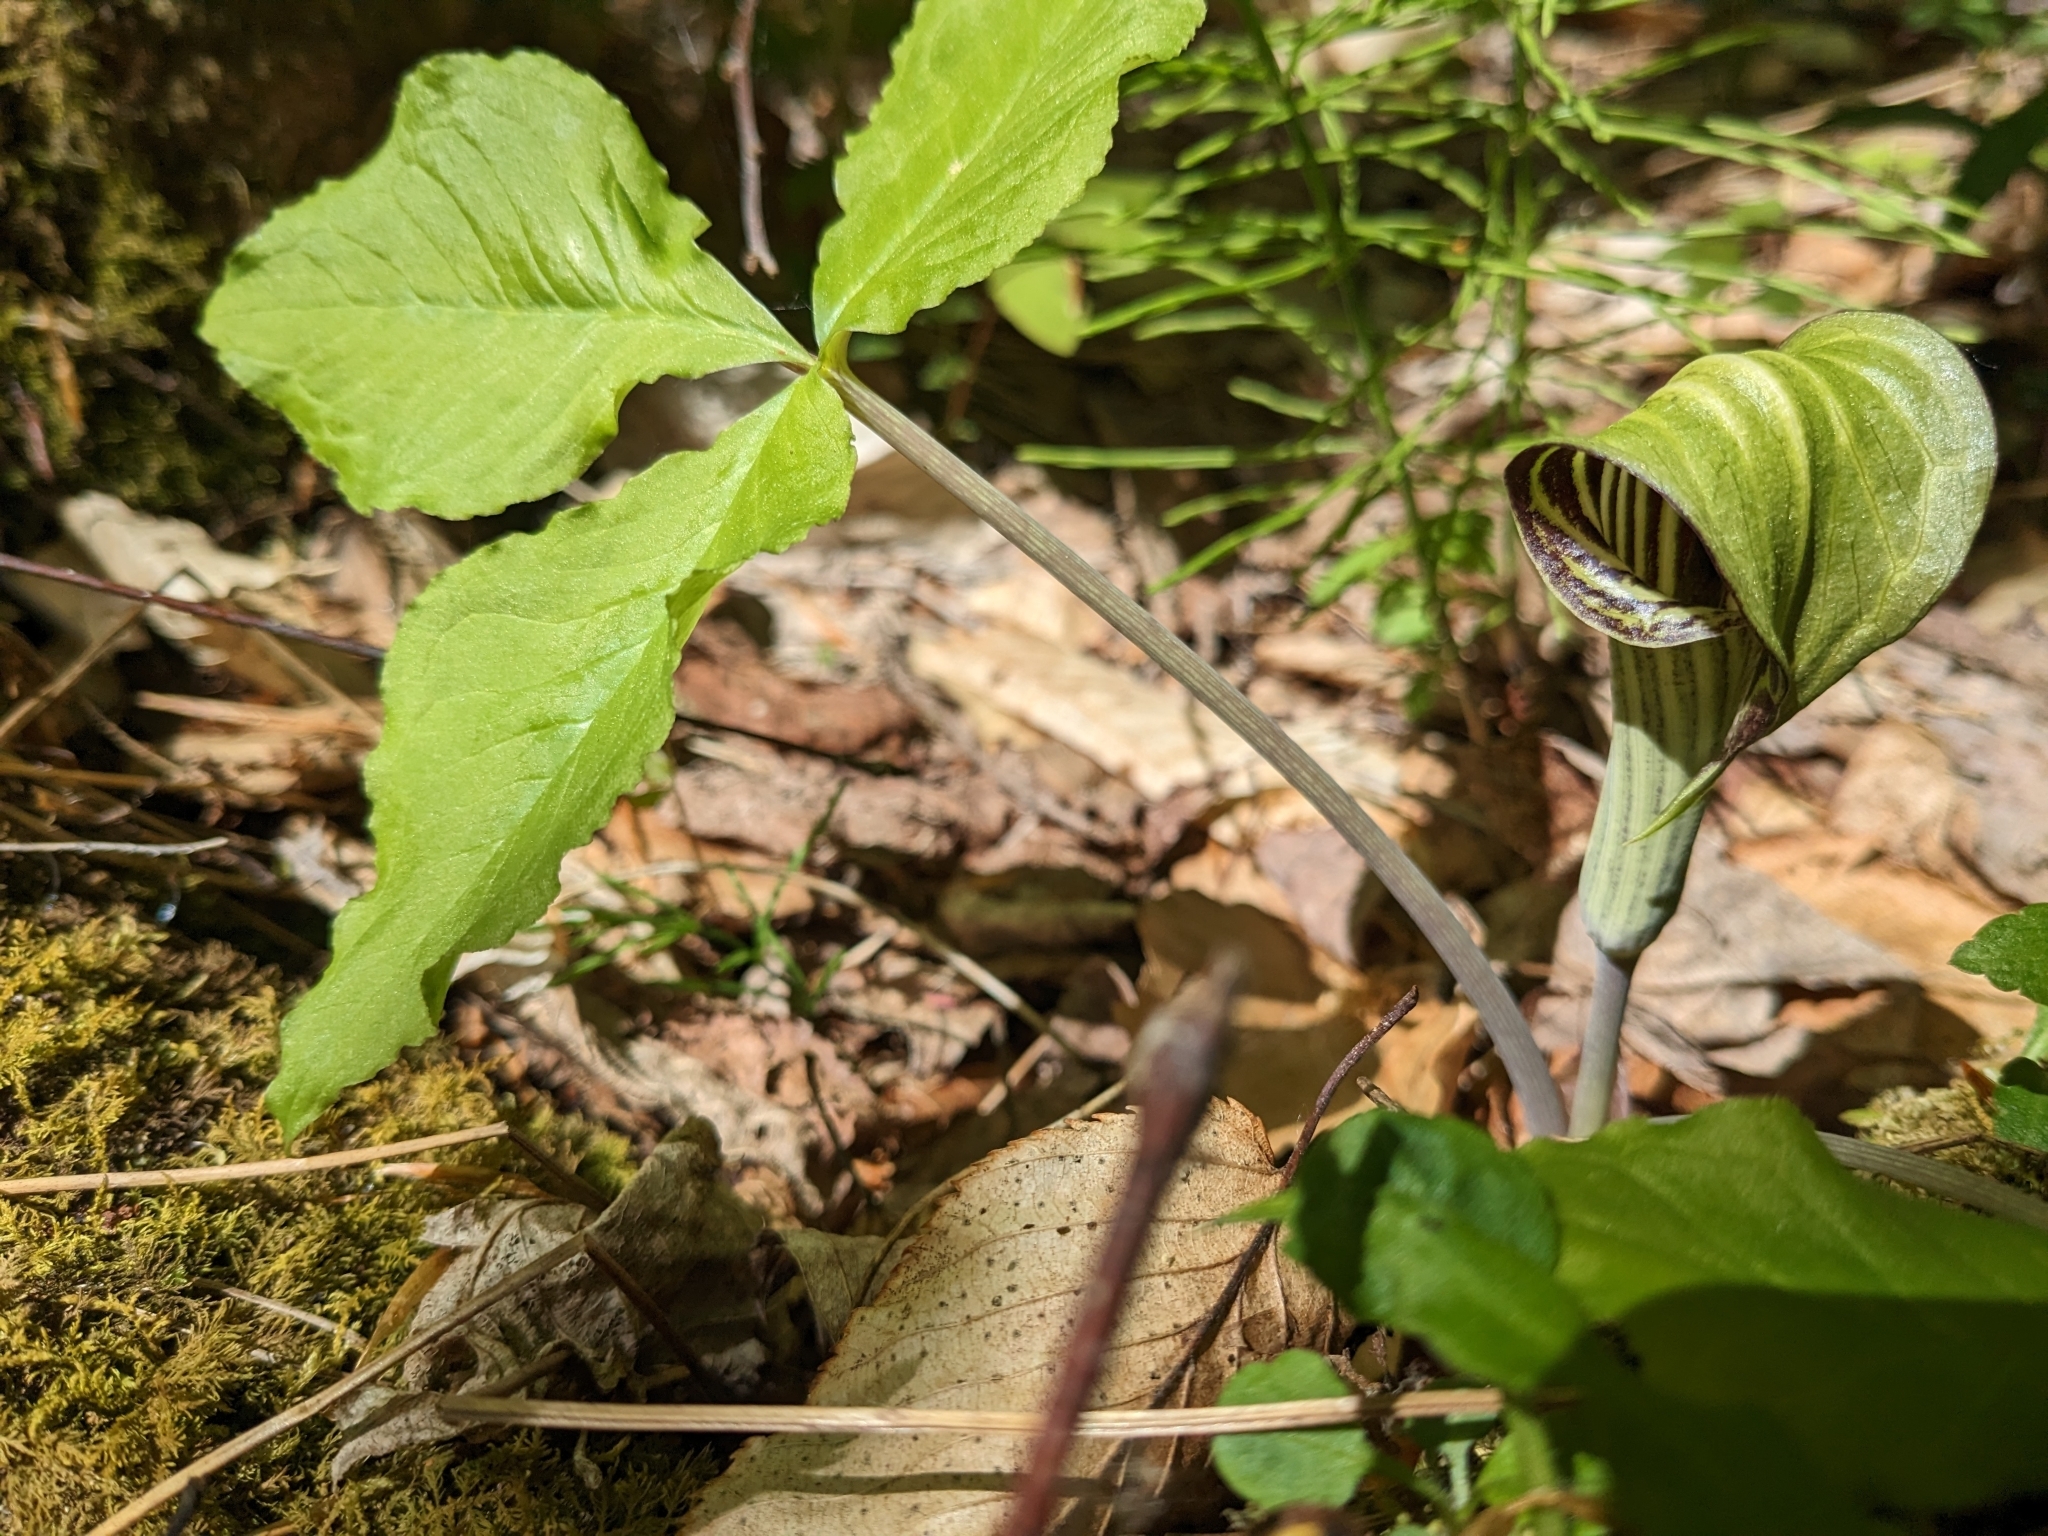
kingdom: Plantae
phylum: Tracheophyta
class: Liliopsida
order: Alismatales
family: Araceae
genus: Arisaema
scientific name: Arisaema triphyllum
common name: Jack-in-the-pulpit
